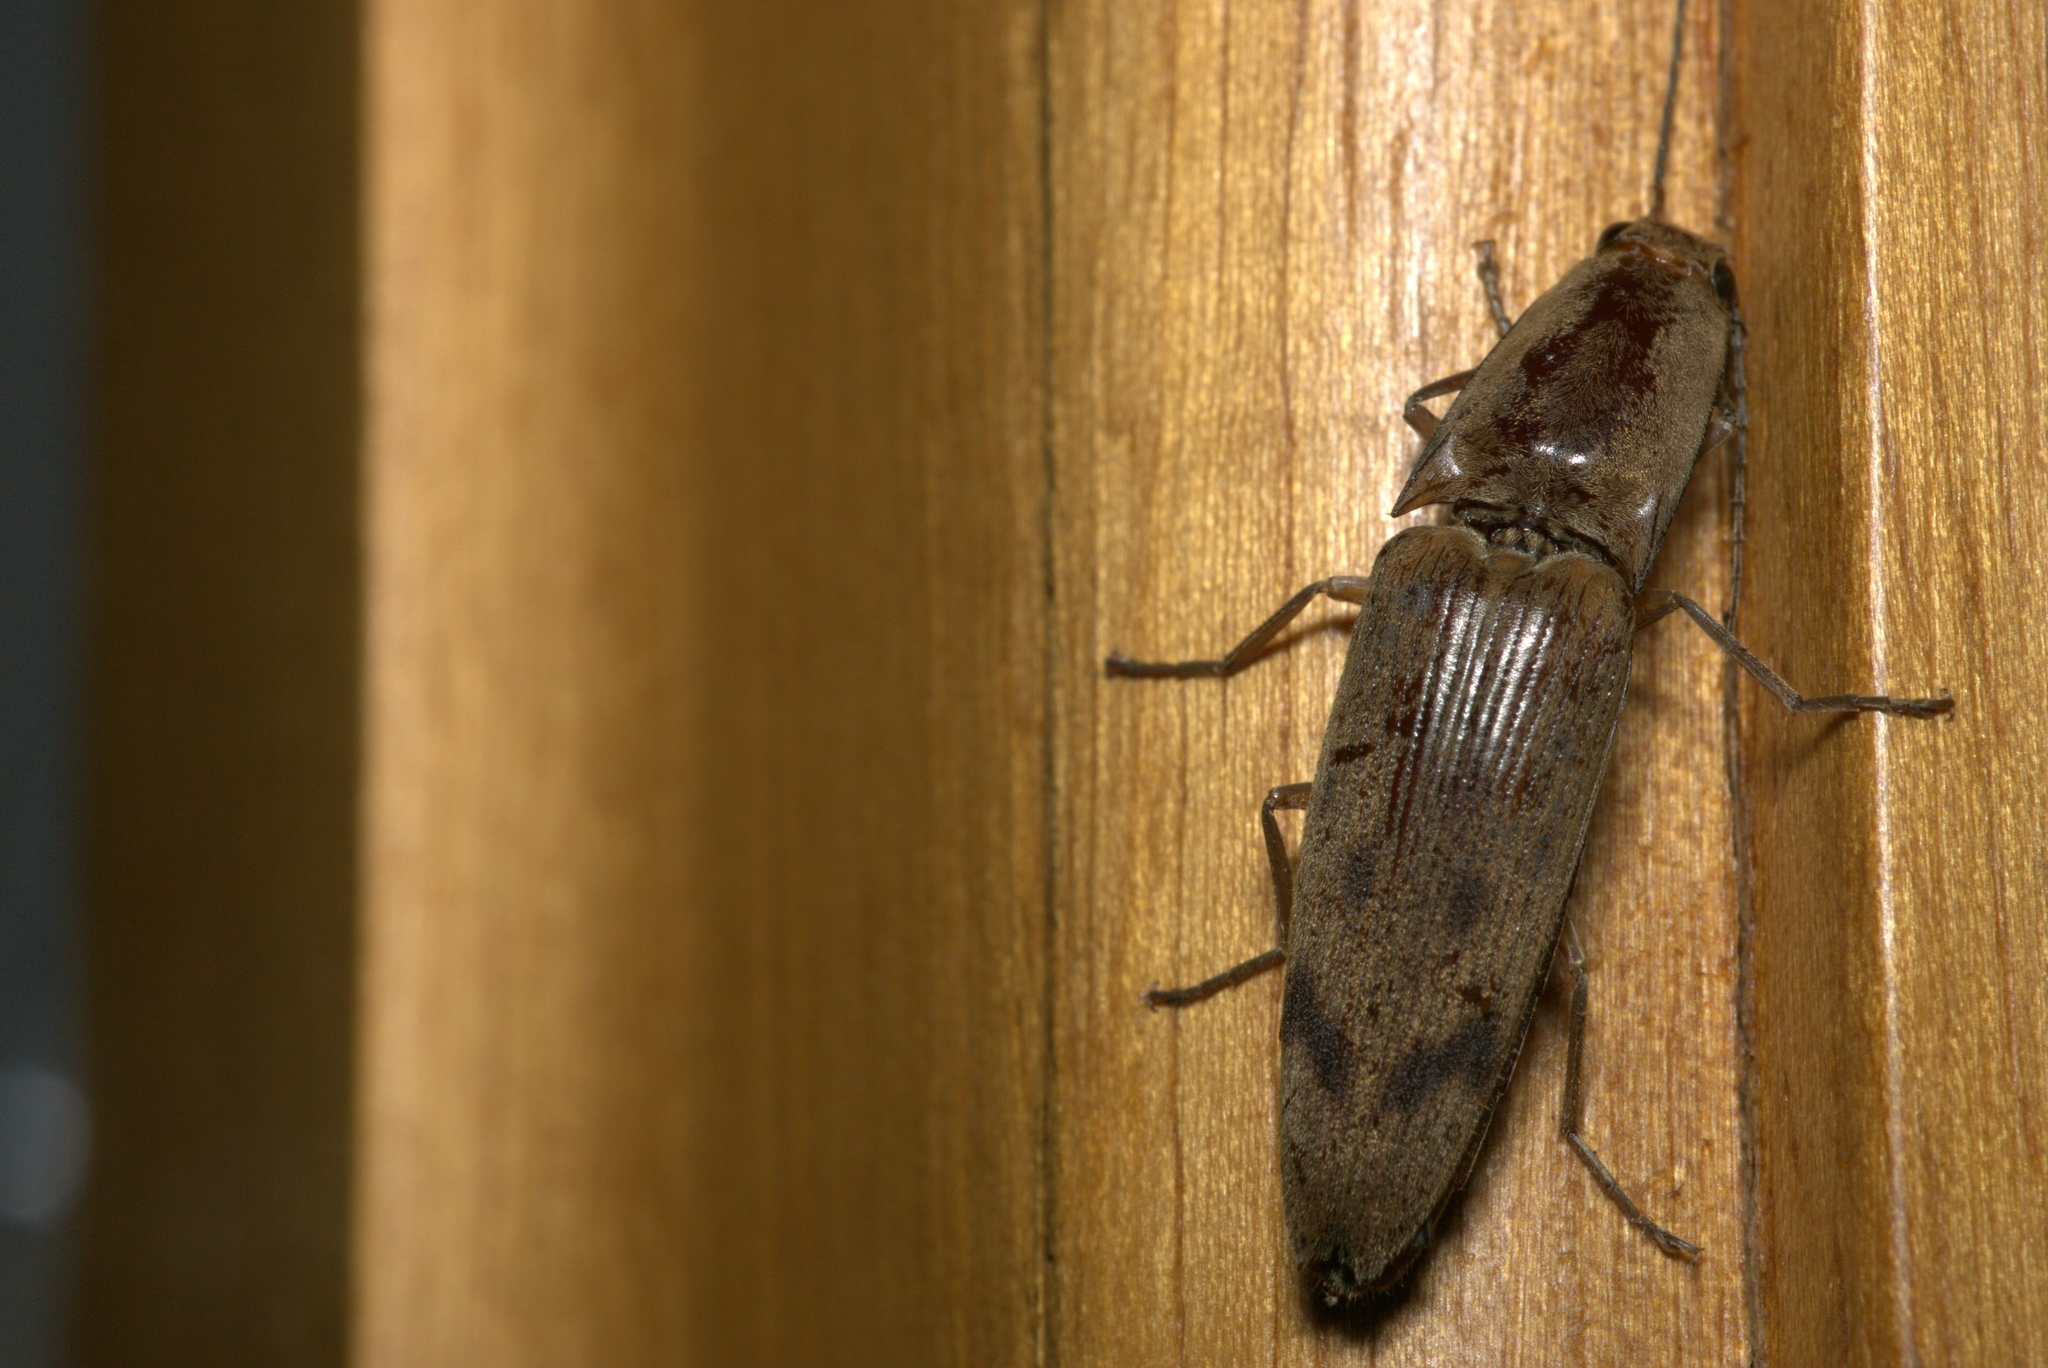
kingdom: Animalia
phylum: Arthropoda
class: Insecta
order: Coleoptera
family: Elateridae
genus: Monocrepidius
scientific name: Monocrepidius
